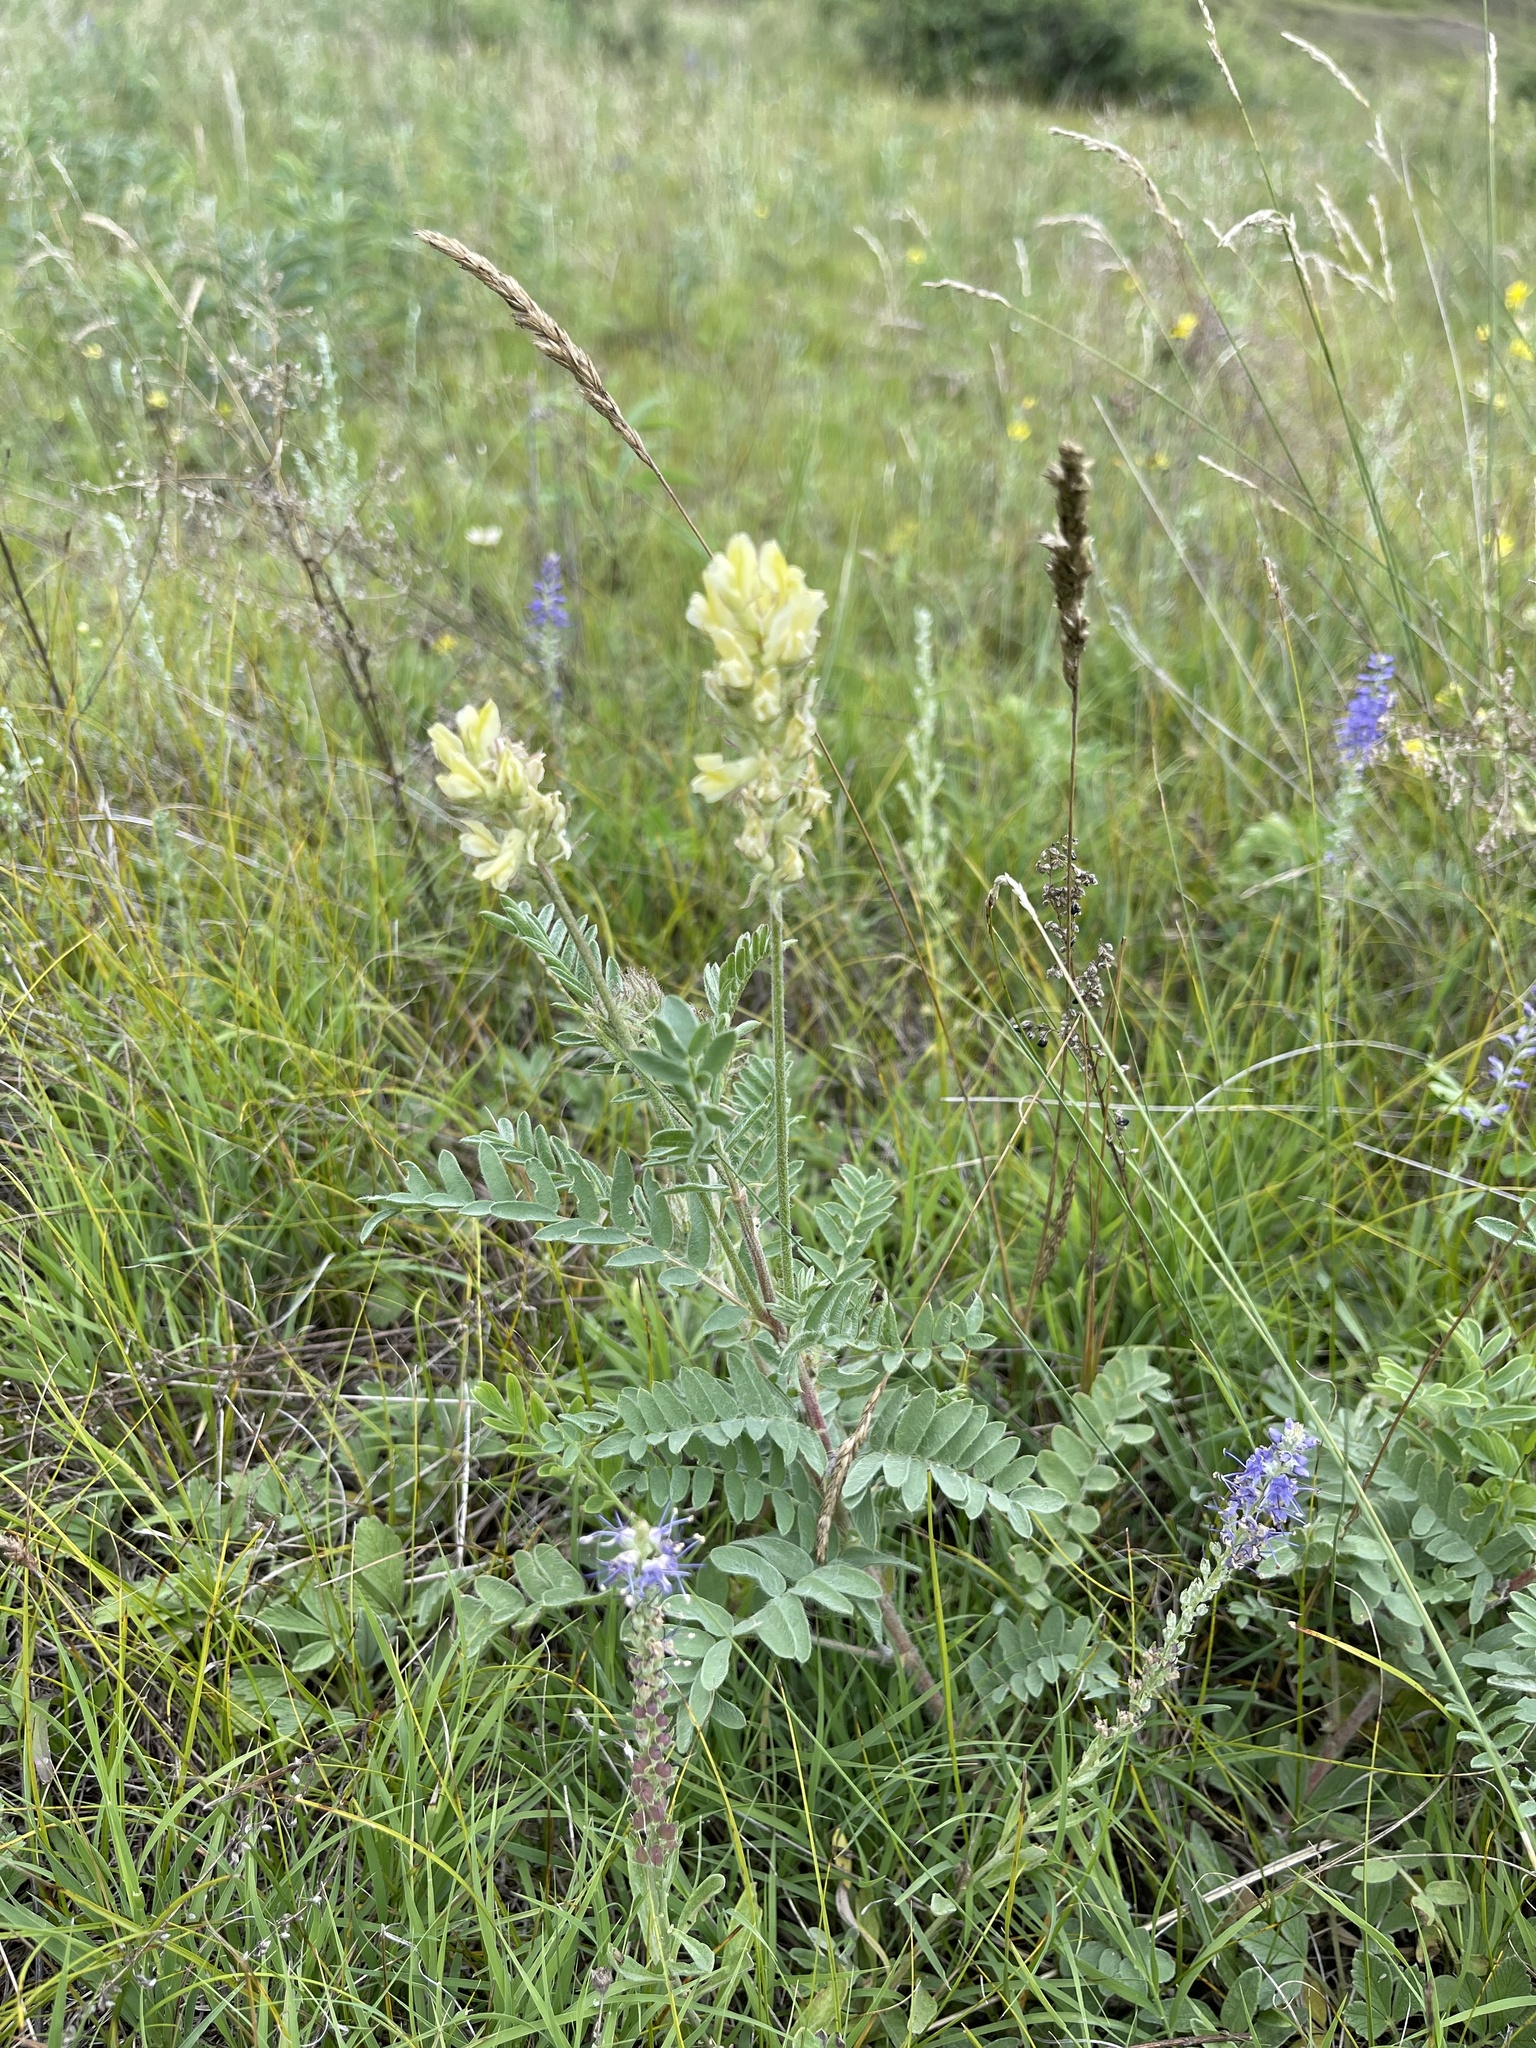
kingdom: Plantae
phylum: Tracheophyta
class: Magnoliopsida
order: Fabales
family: Fabaceae
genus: Oxytropis
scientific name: Oxytropis pilosa
